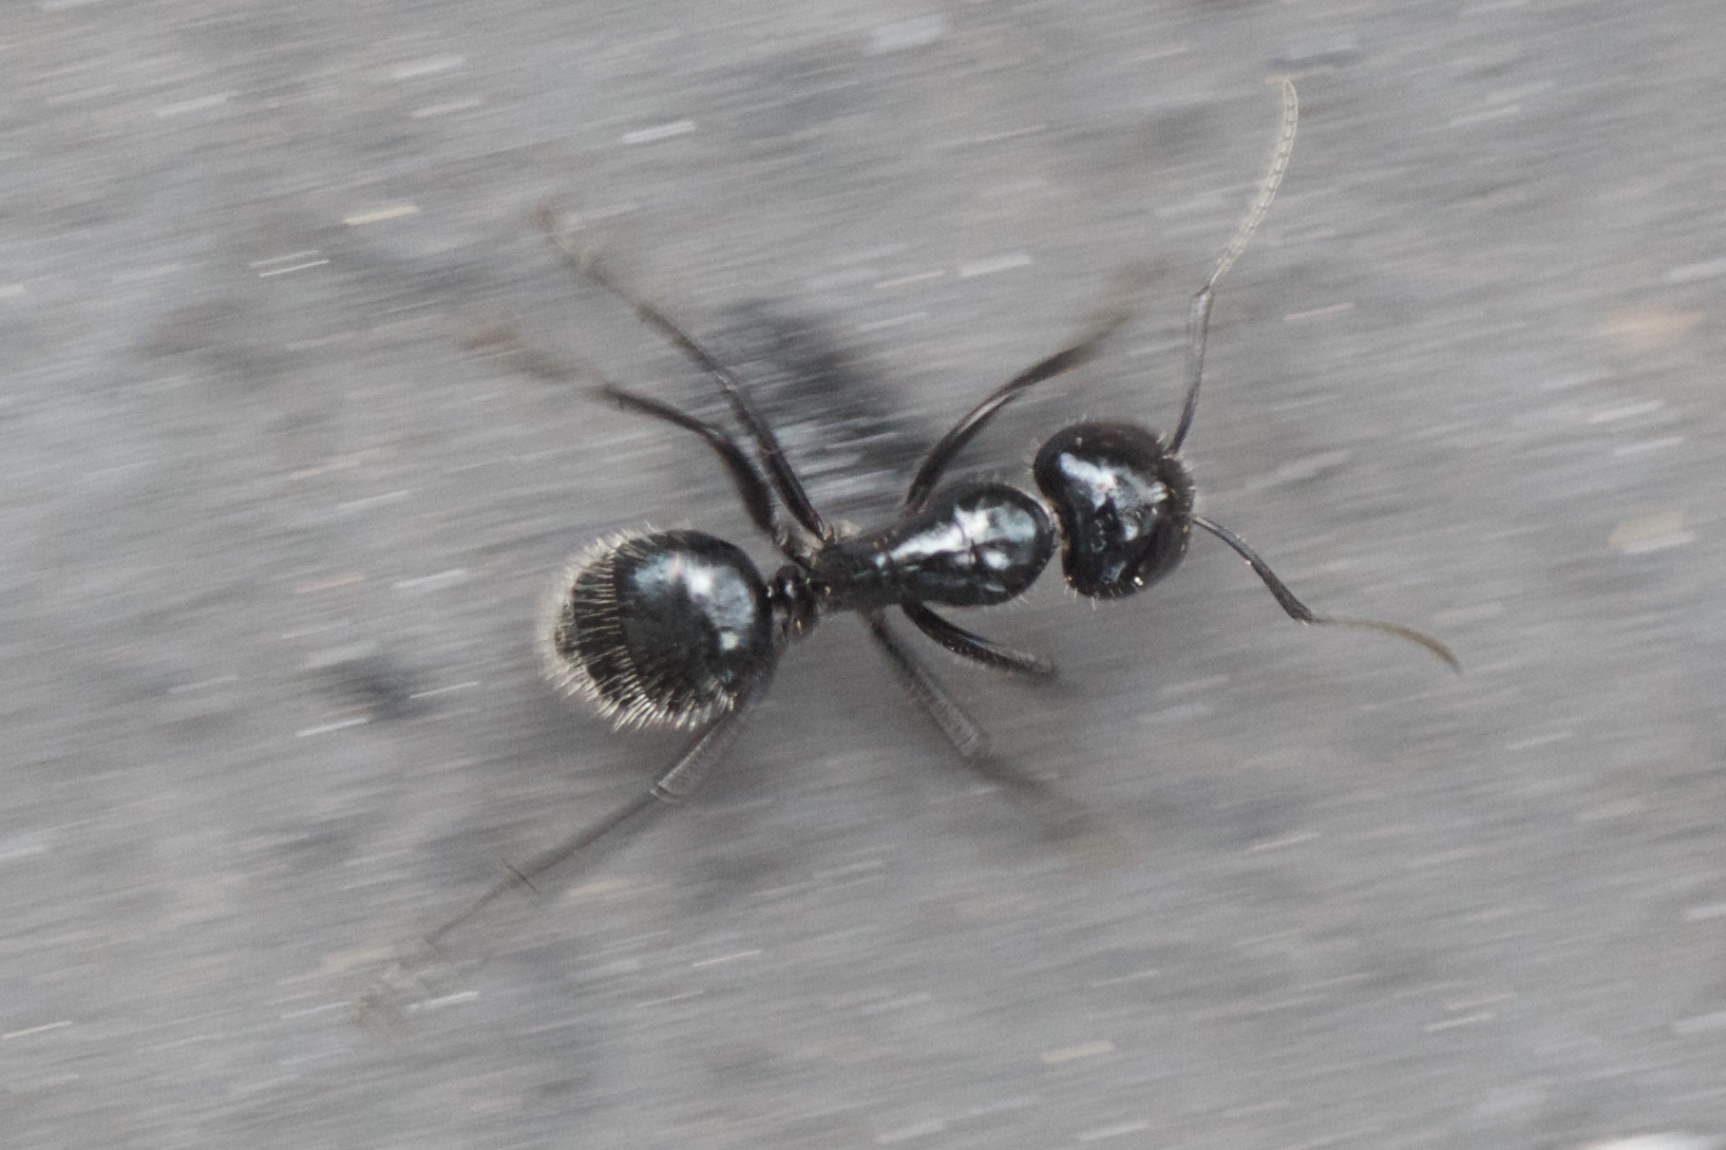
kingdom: Animalia
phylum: Arthropoda
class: Insecta
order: Hymenoptera
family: Formicidae
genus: Camponotus
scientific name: Camponotus
